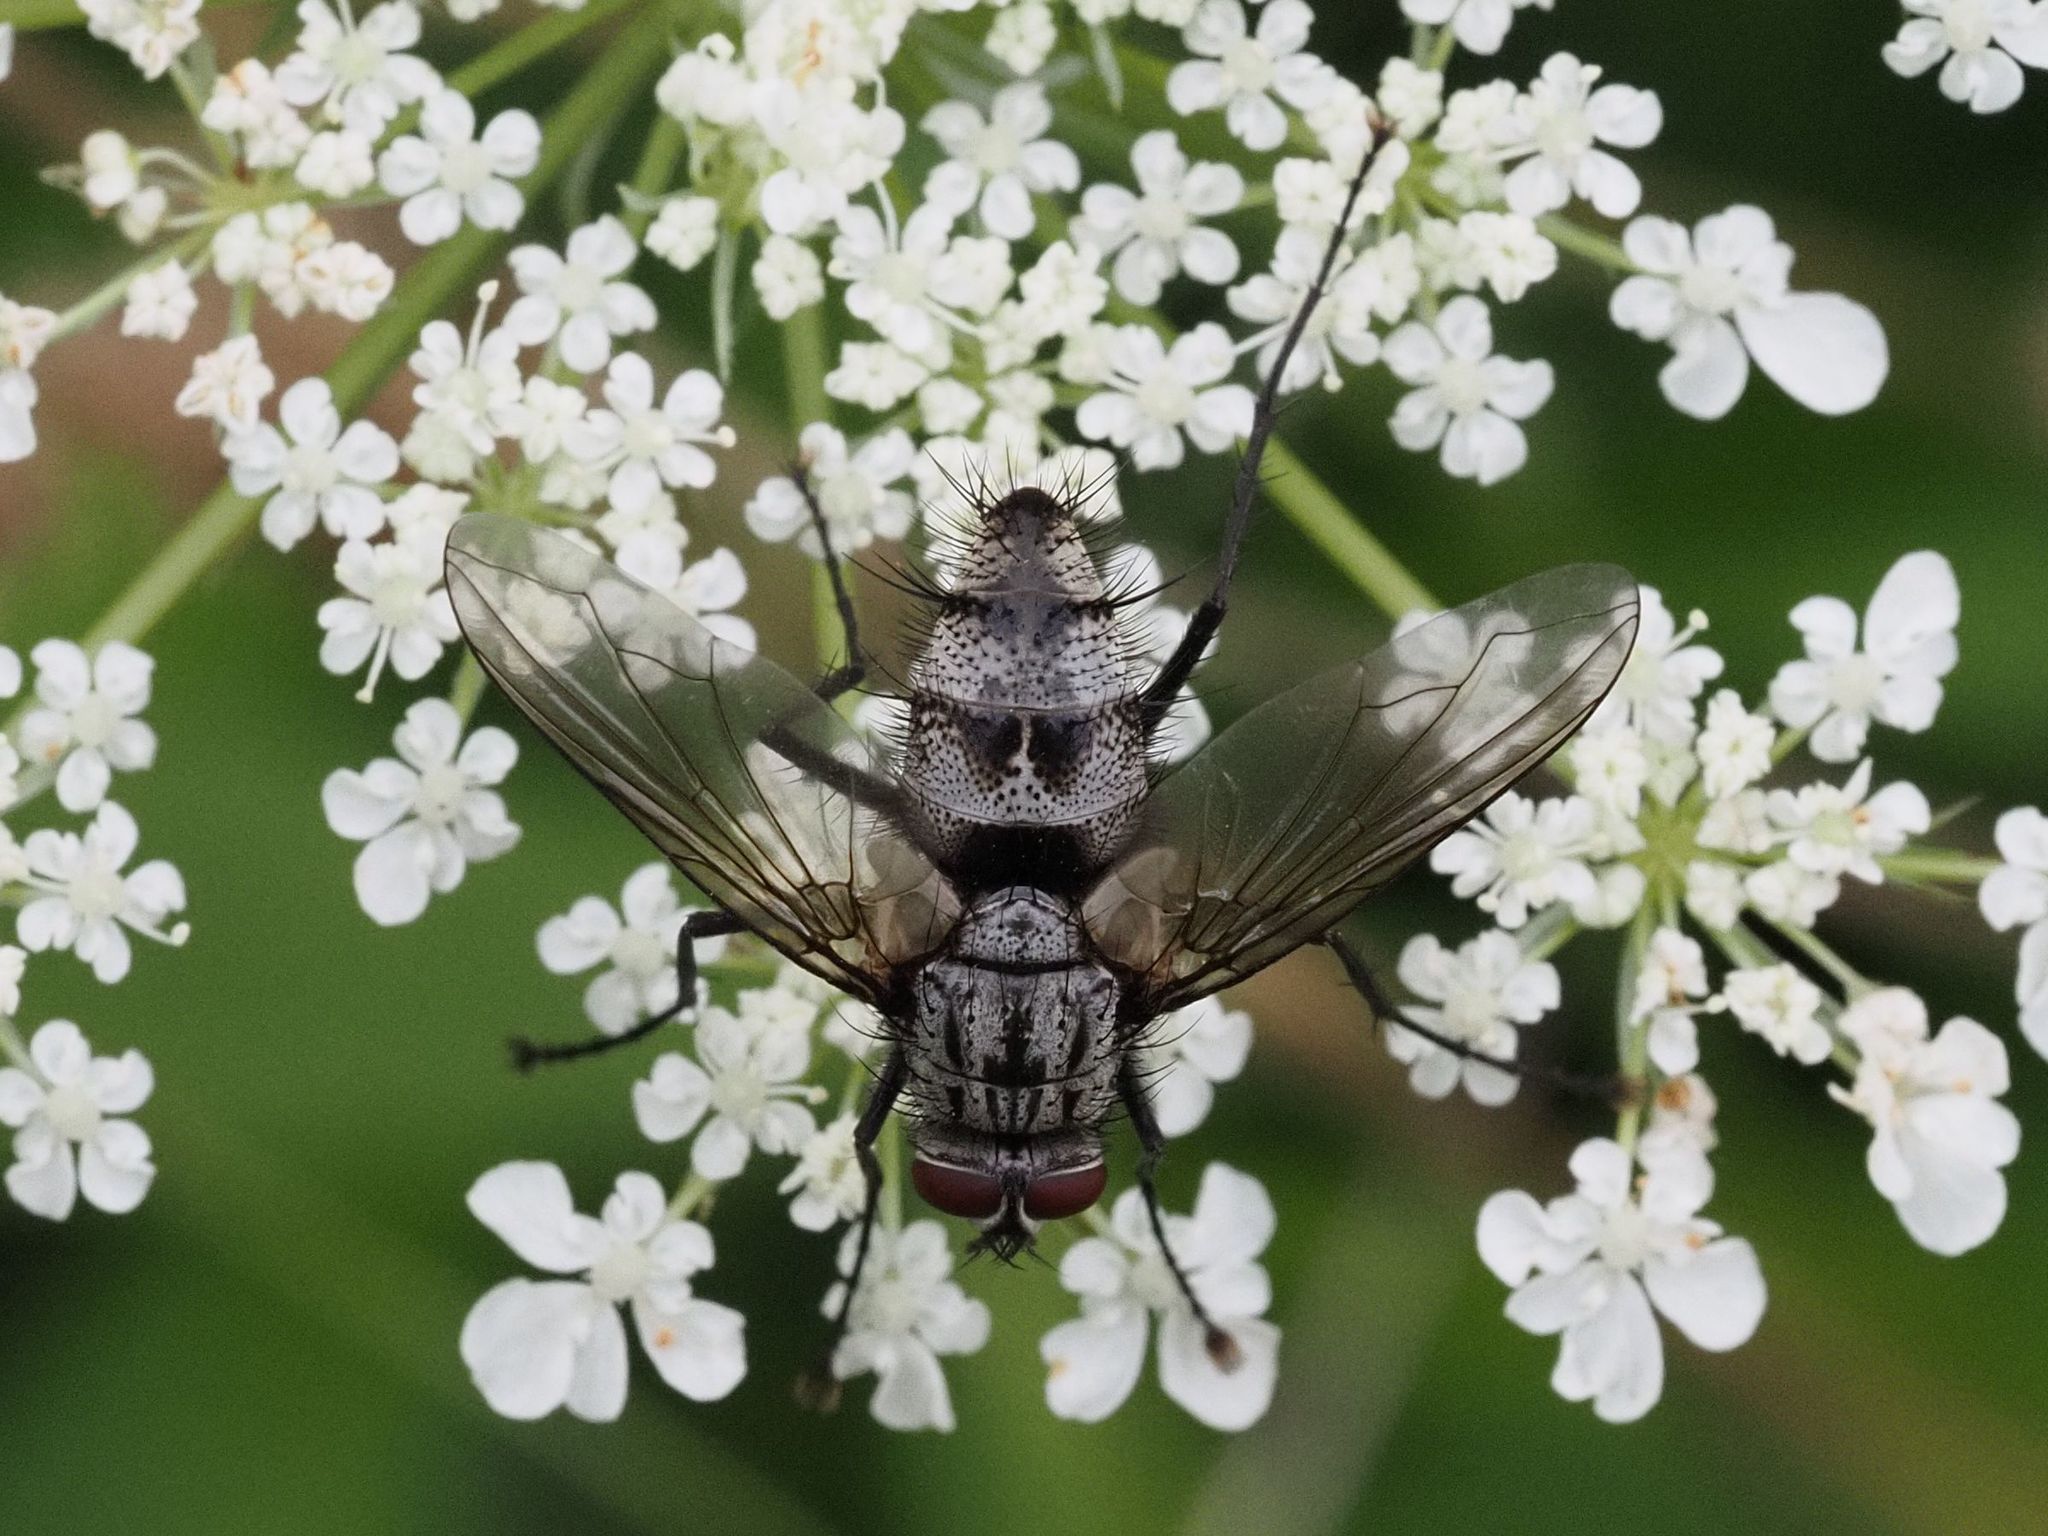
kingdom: Animalia
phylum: Arthropoda
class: Insecta
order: Diptera
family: Tachinidae
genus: Dinera
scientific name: Dinera ferina
